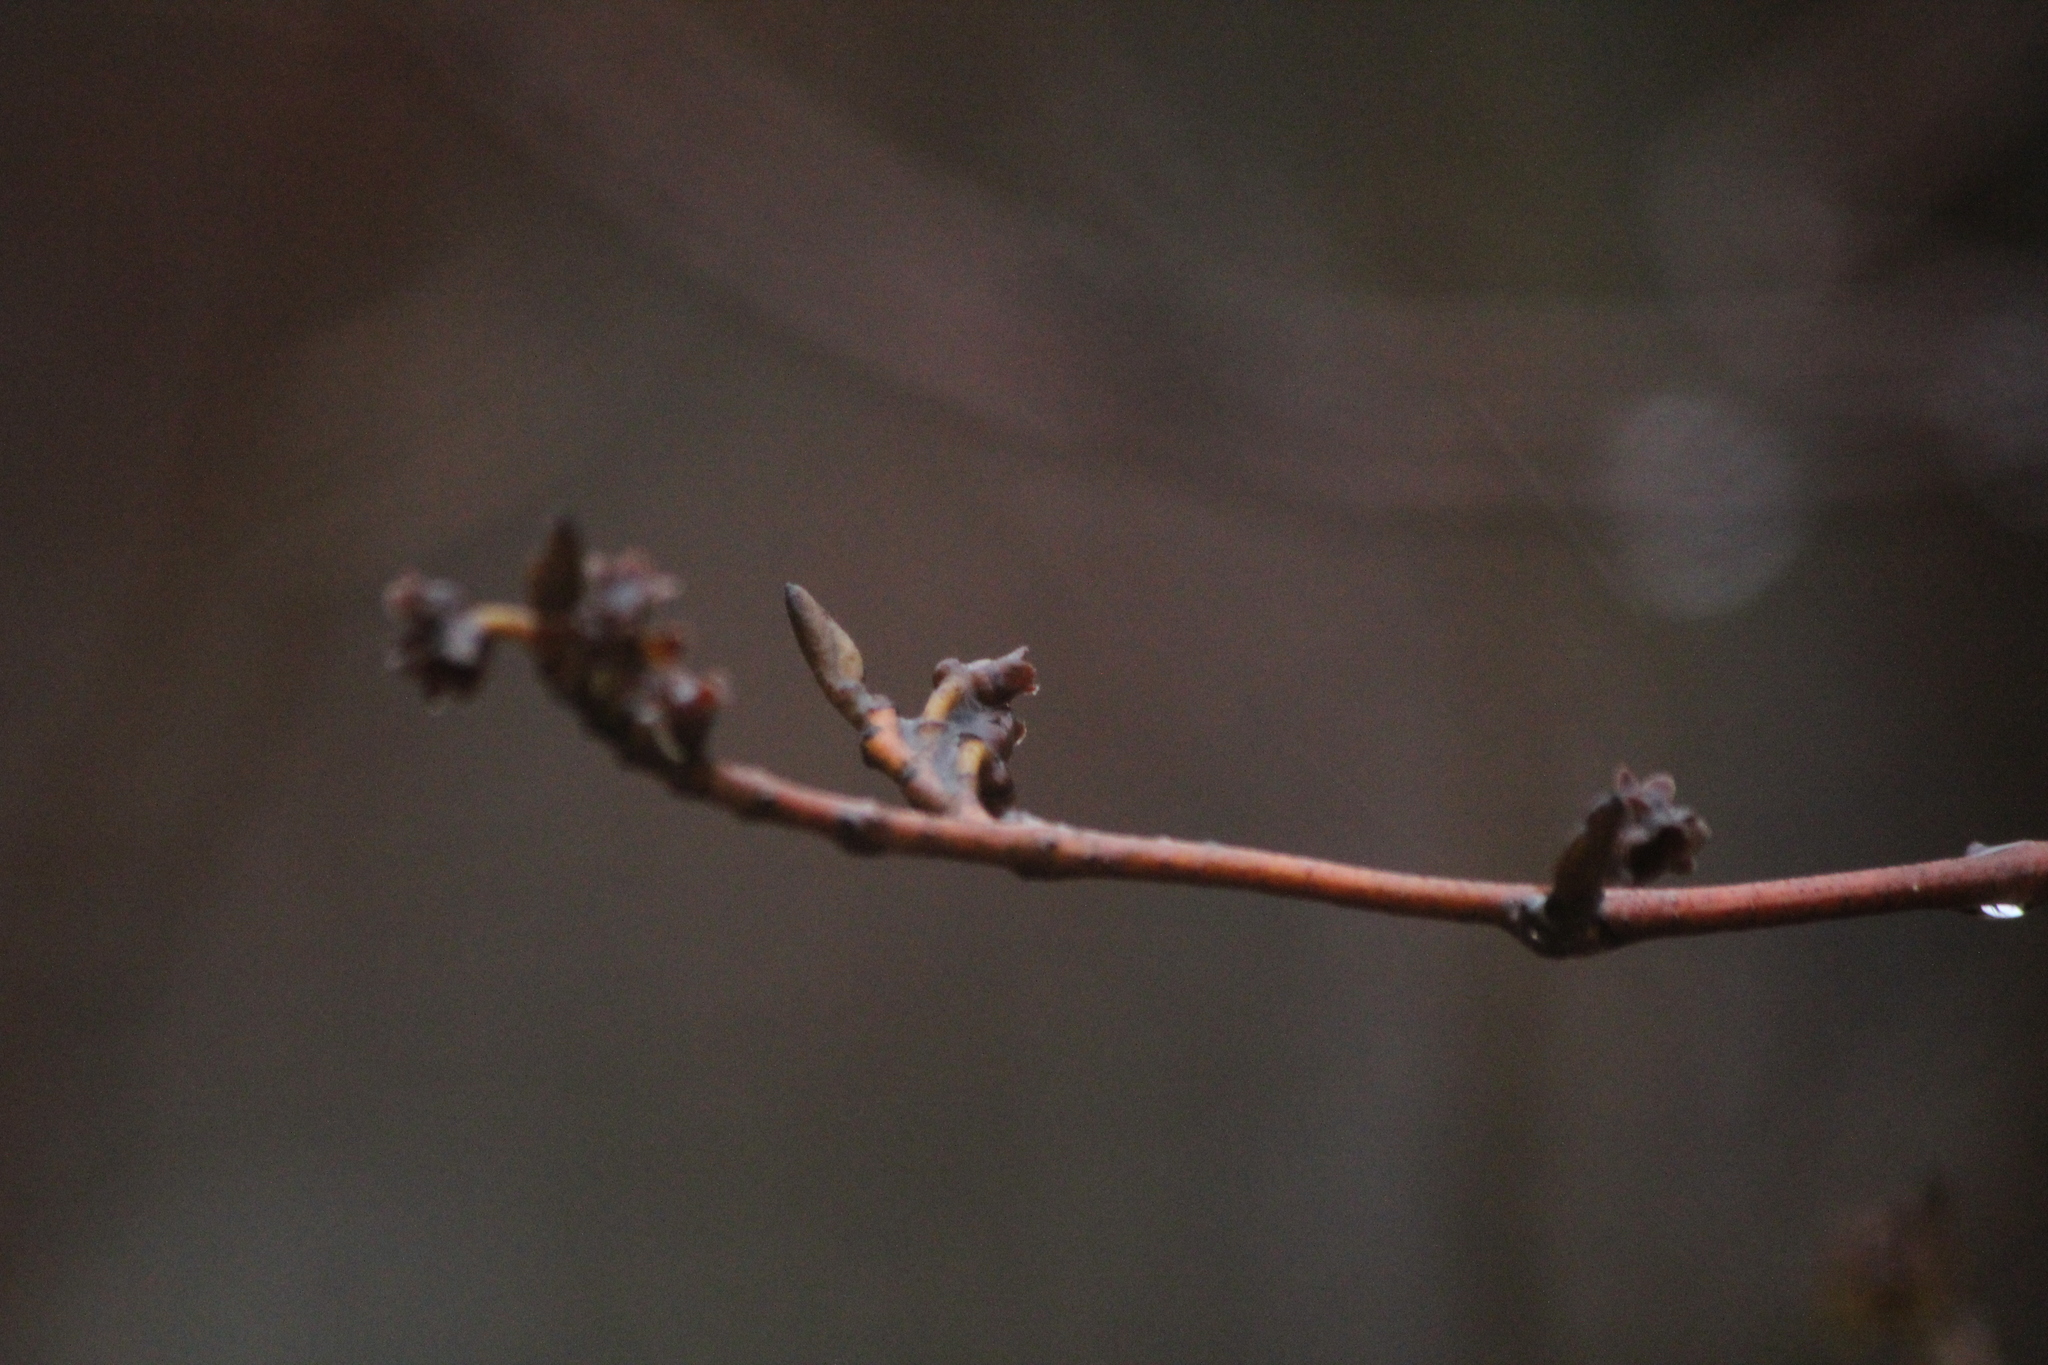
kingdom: Plantae
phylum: Tracheophyta
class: Magnoliopsida
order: Saxifragales
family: Hamamelidaceae
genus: Hamamelis
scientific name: Hamamelis virginiana
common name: Witch-hazel
